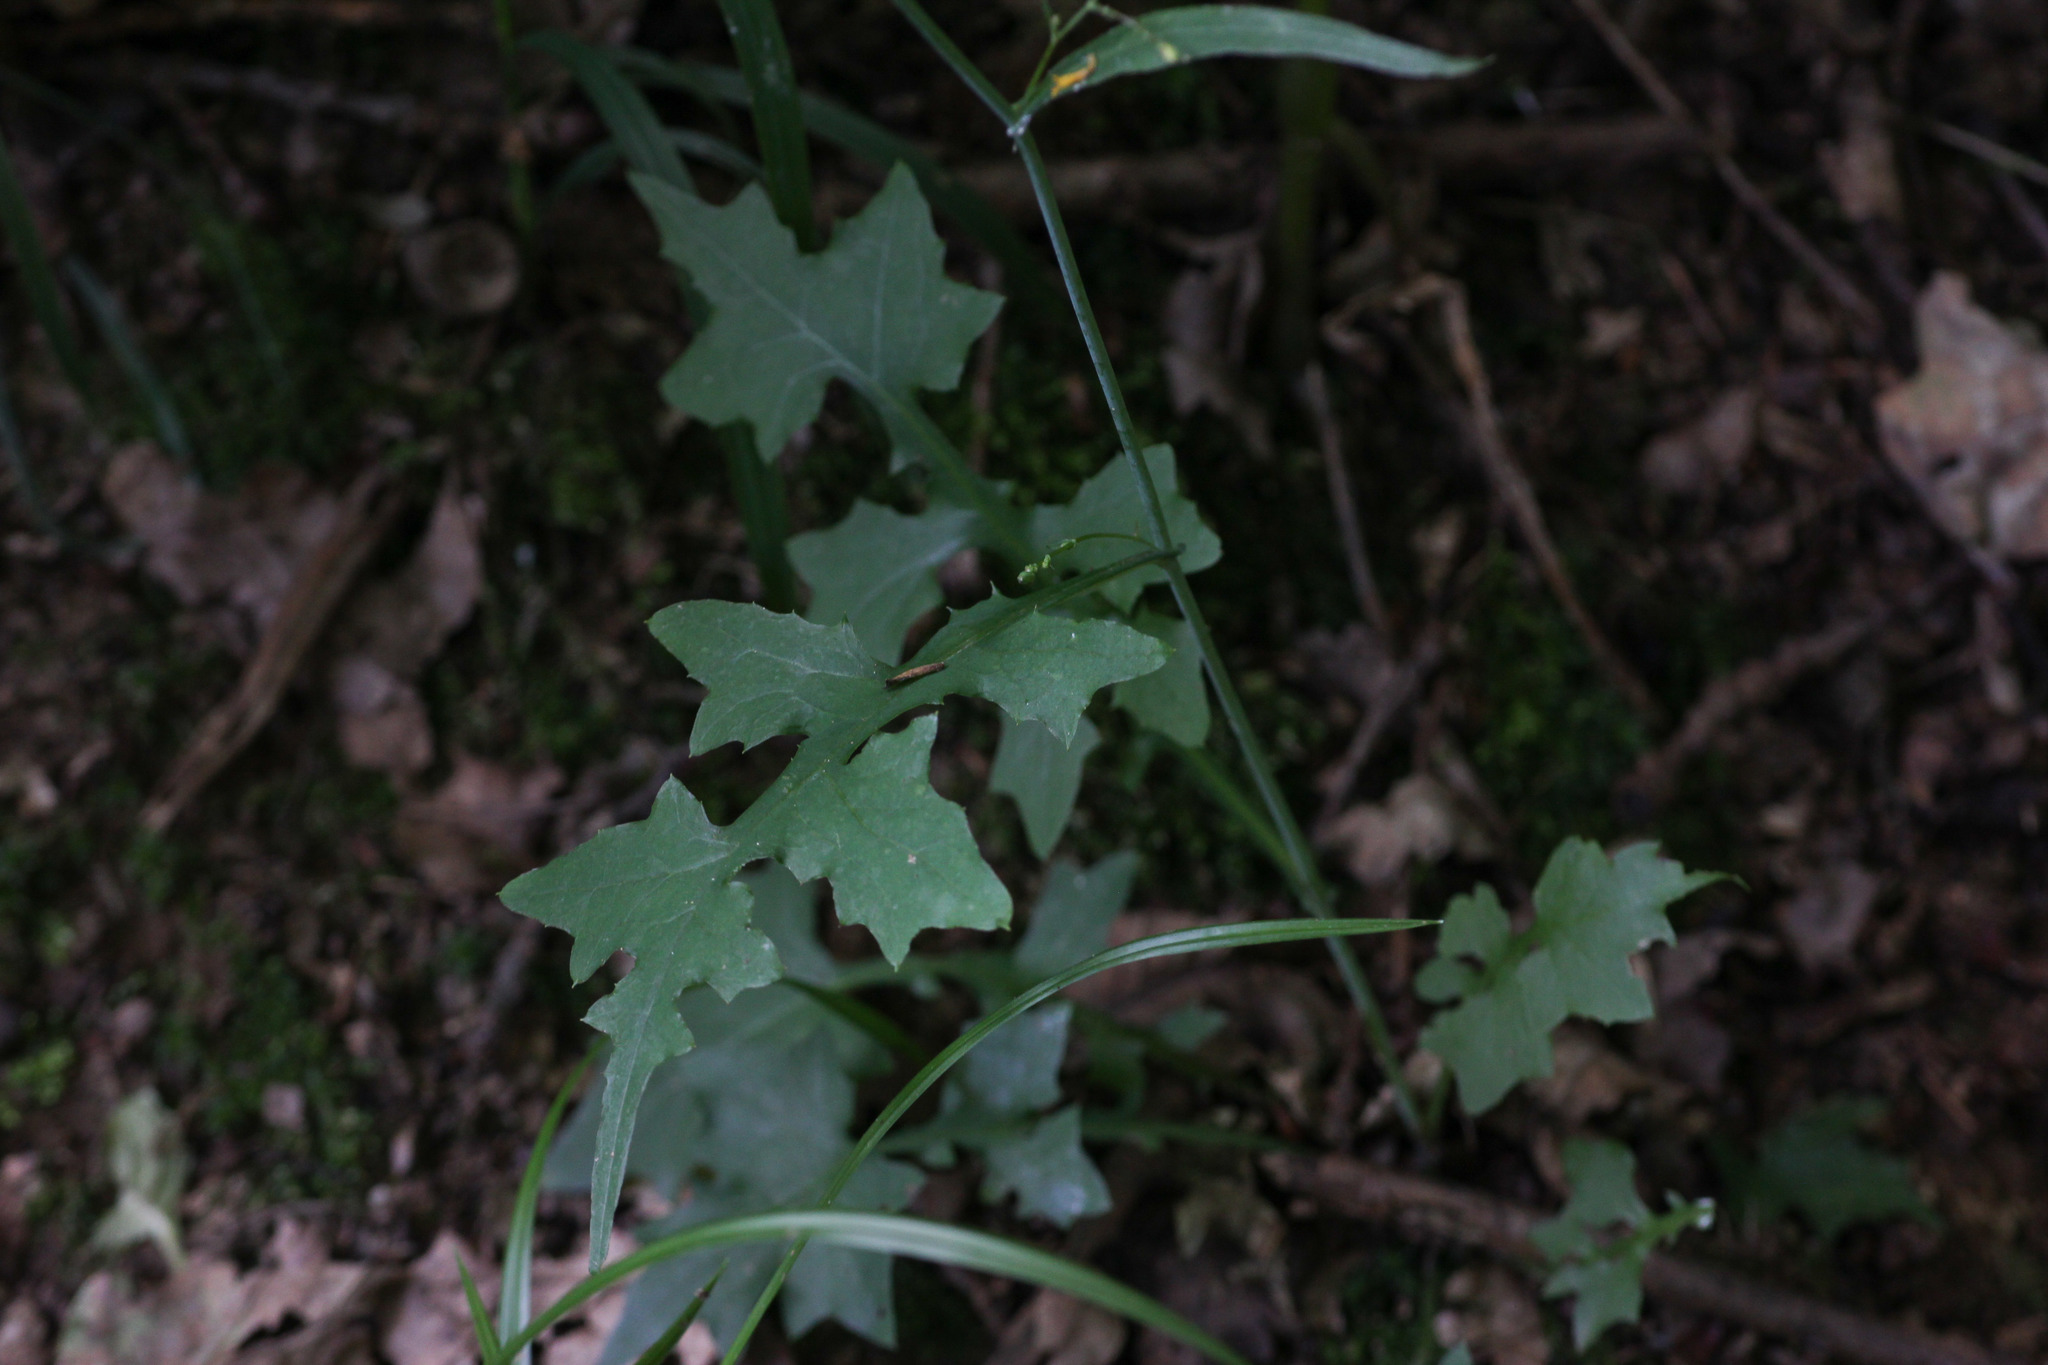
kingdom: Plantae
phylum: Tracheophyta
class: Magnoliopsida
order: Asterales
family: Asteraceae
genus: Mycelis
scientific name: Mycelis muralis
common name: Wall lettuce
